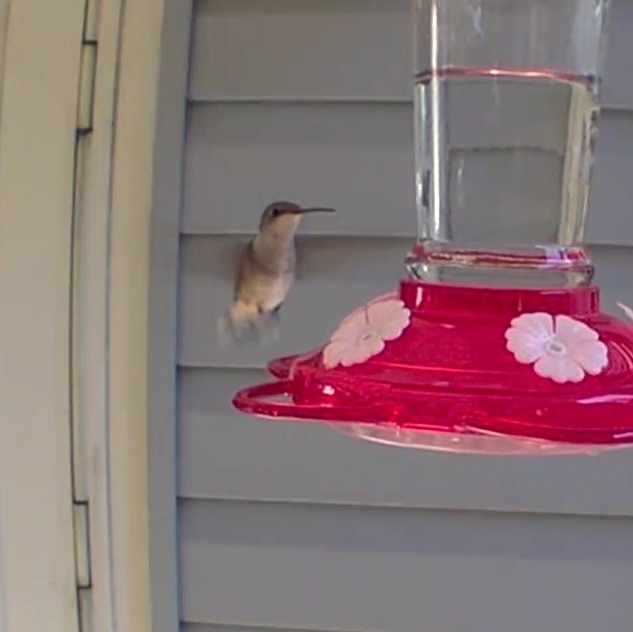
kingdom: Animalia
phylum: Chordata
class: Aves
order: Apodiformes
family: Trochilidae
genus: Archilochus
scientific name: Archilochus colubris
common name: Ruby-throated hummingbird
